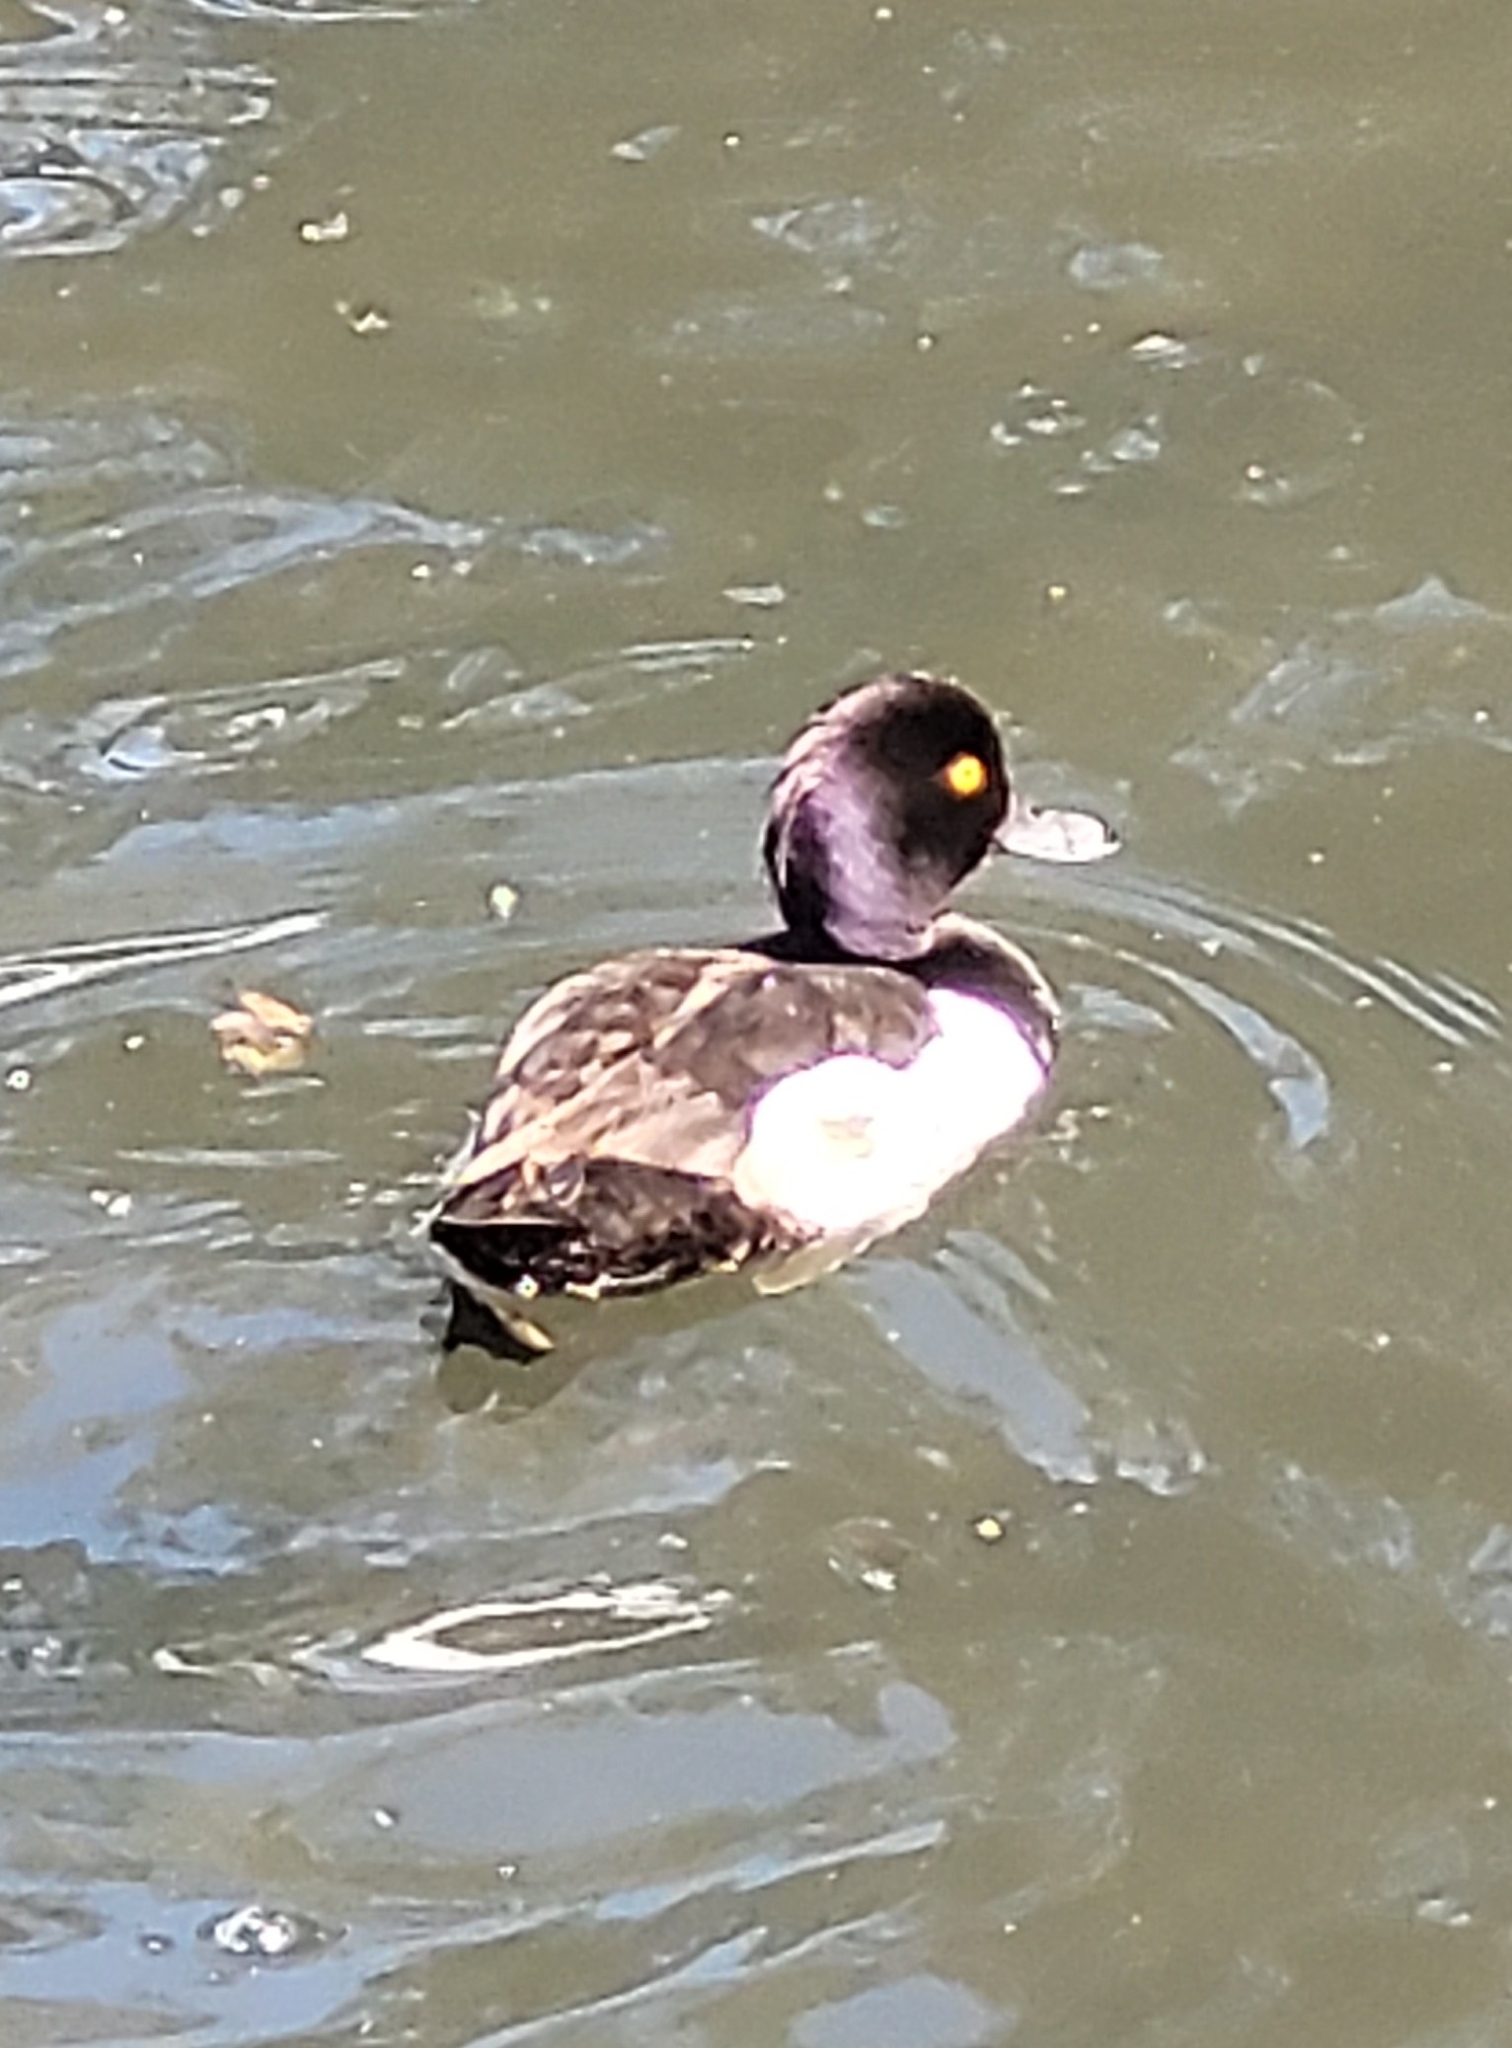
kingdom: Animalia
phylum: Chordata
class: Aves
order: Anseriformes
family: Anatidae
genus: Aythya
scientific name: Aythya fuligula
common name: Tufted duck
